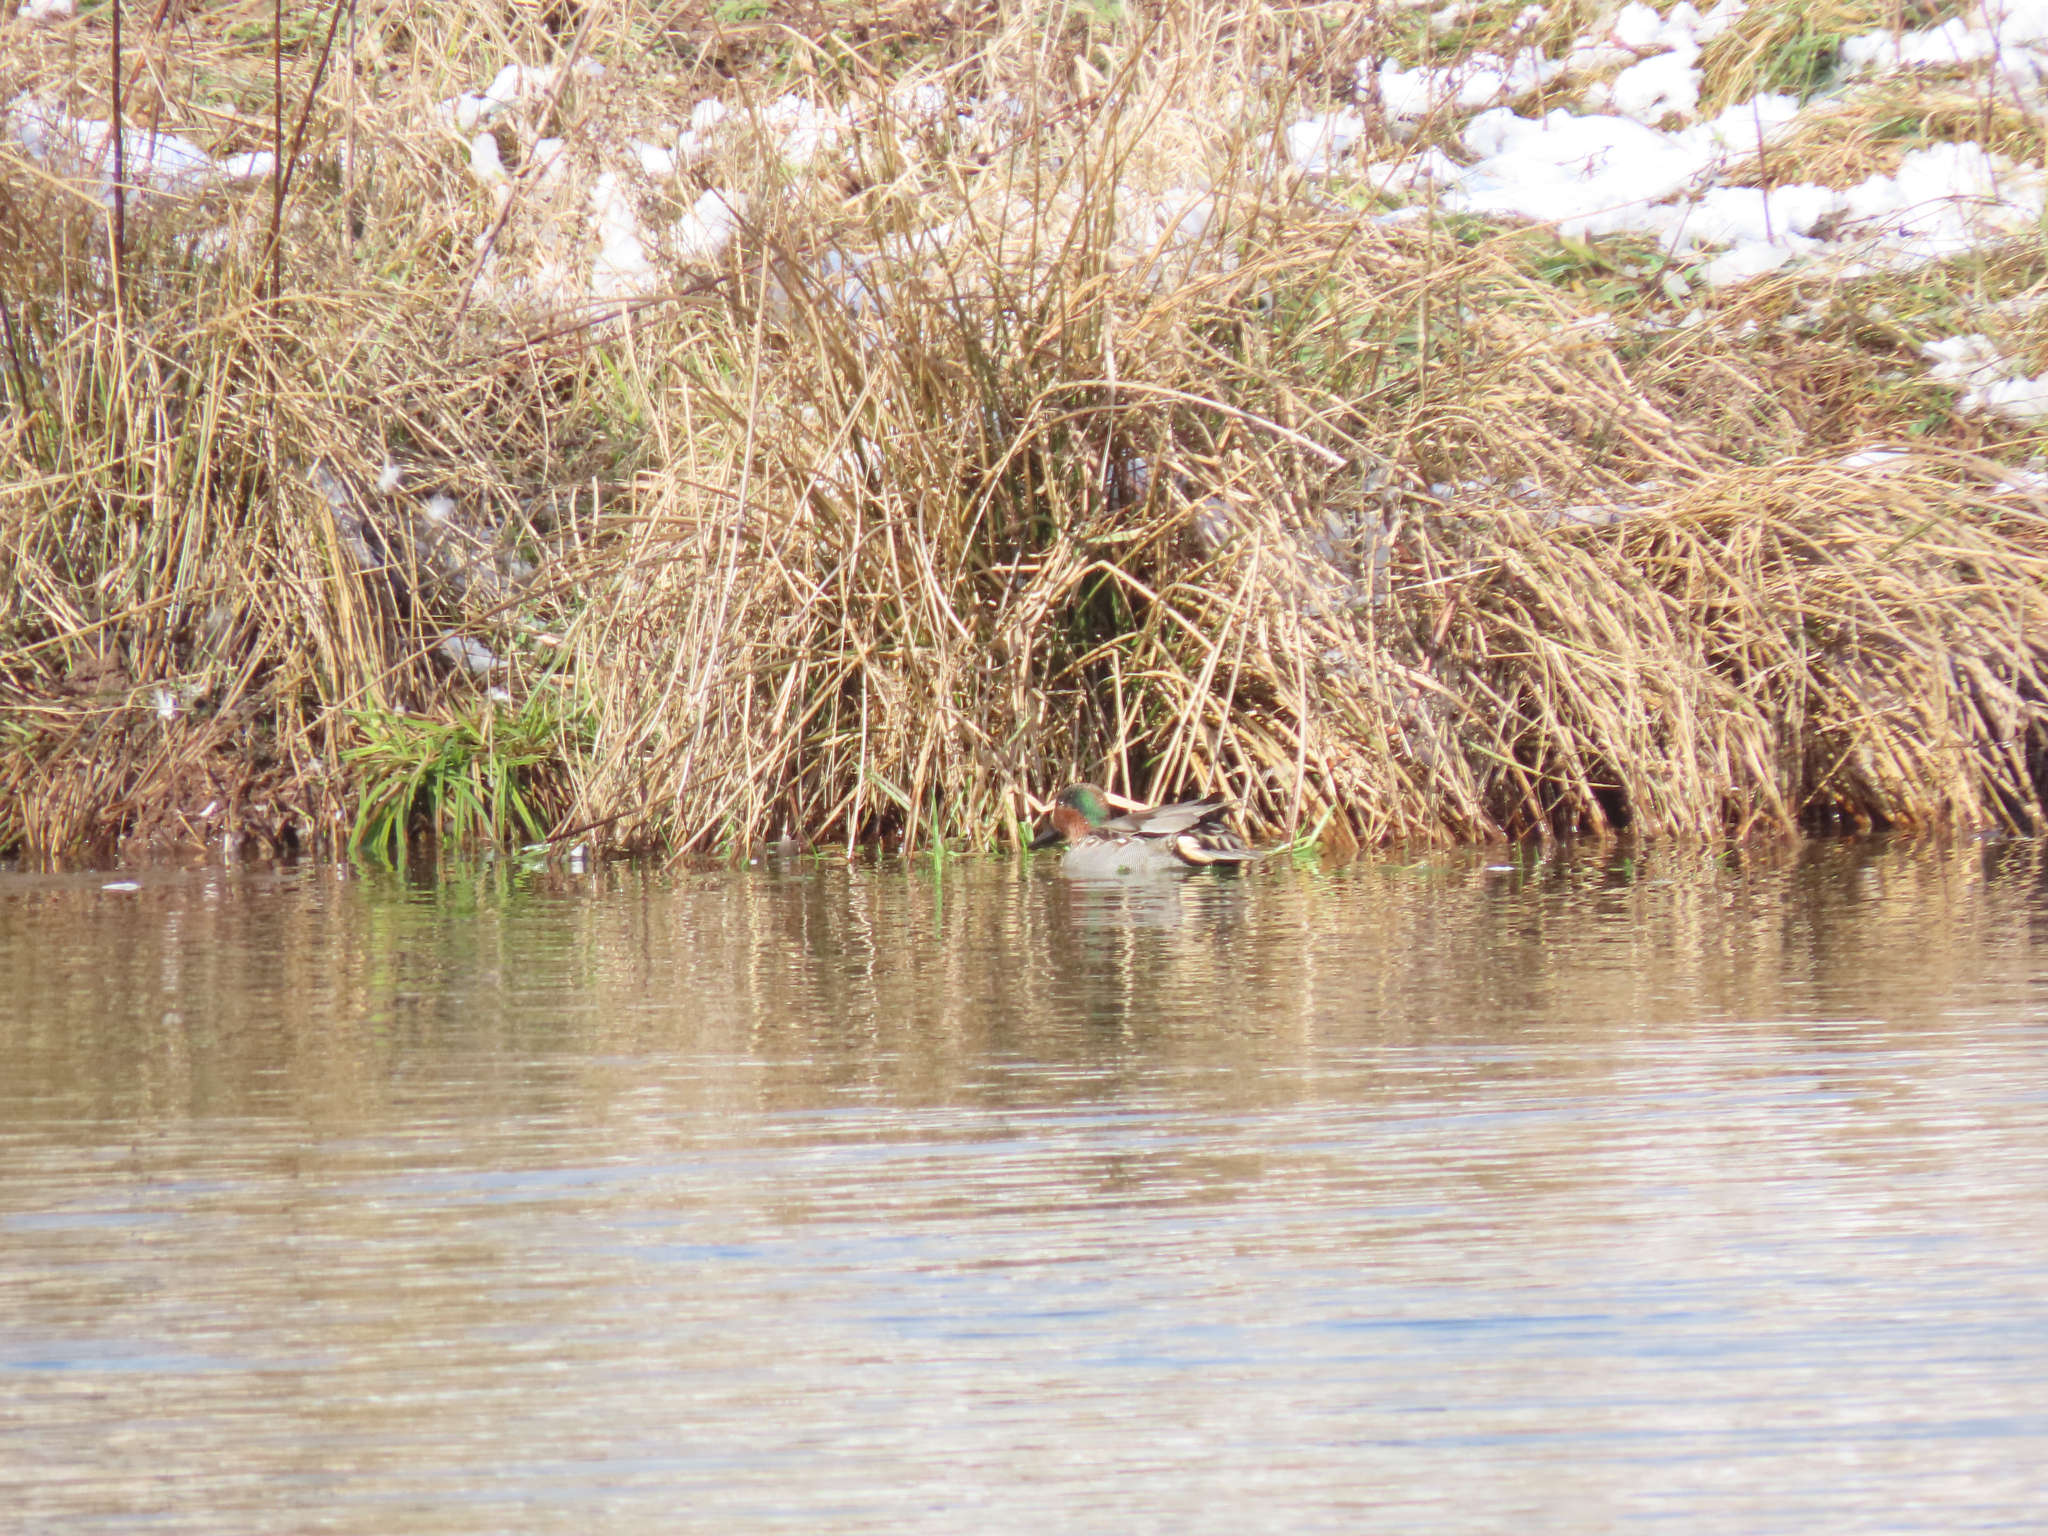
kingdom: Animalia
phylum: Chordata
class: Aves
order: Anseriformes
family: Anatidae
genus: Anas
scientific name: Anas crecca
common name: Eurasian teal
